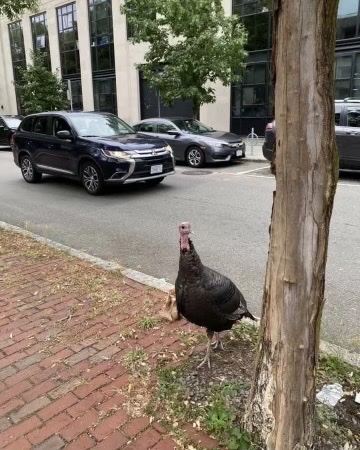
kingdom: Animalia
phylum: Chordata
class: Aves
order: Galliformes
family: Phasianidae
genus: Meleagris
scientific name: Meleagris gallopavo
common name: Wild turkey
